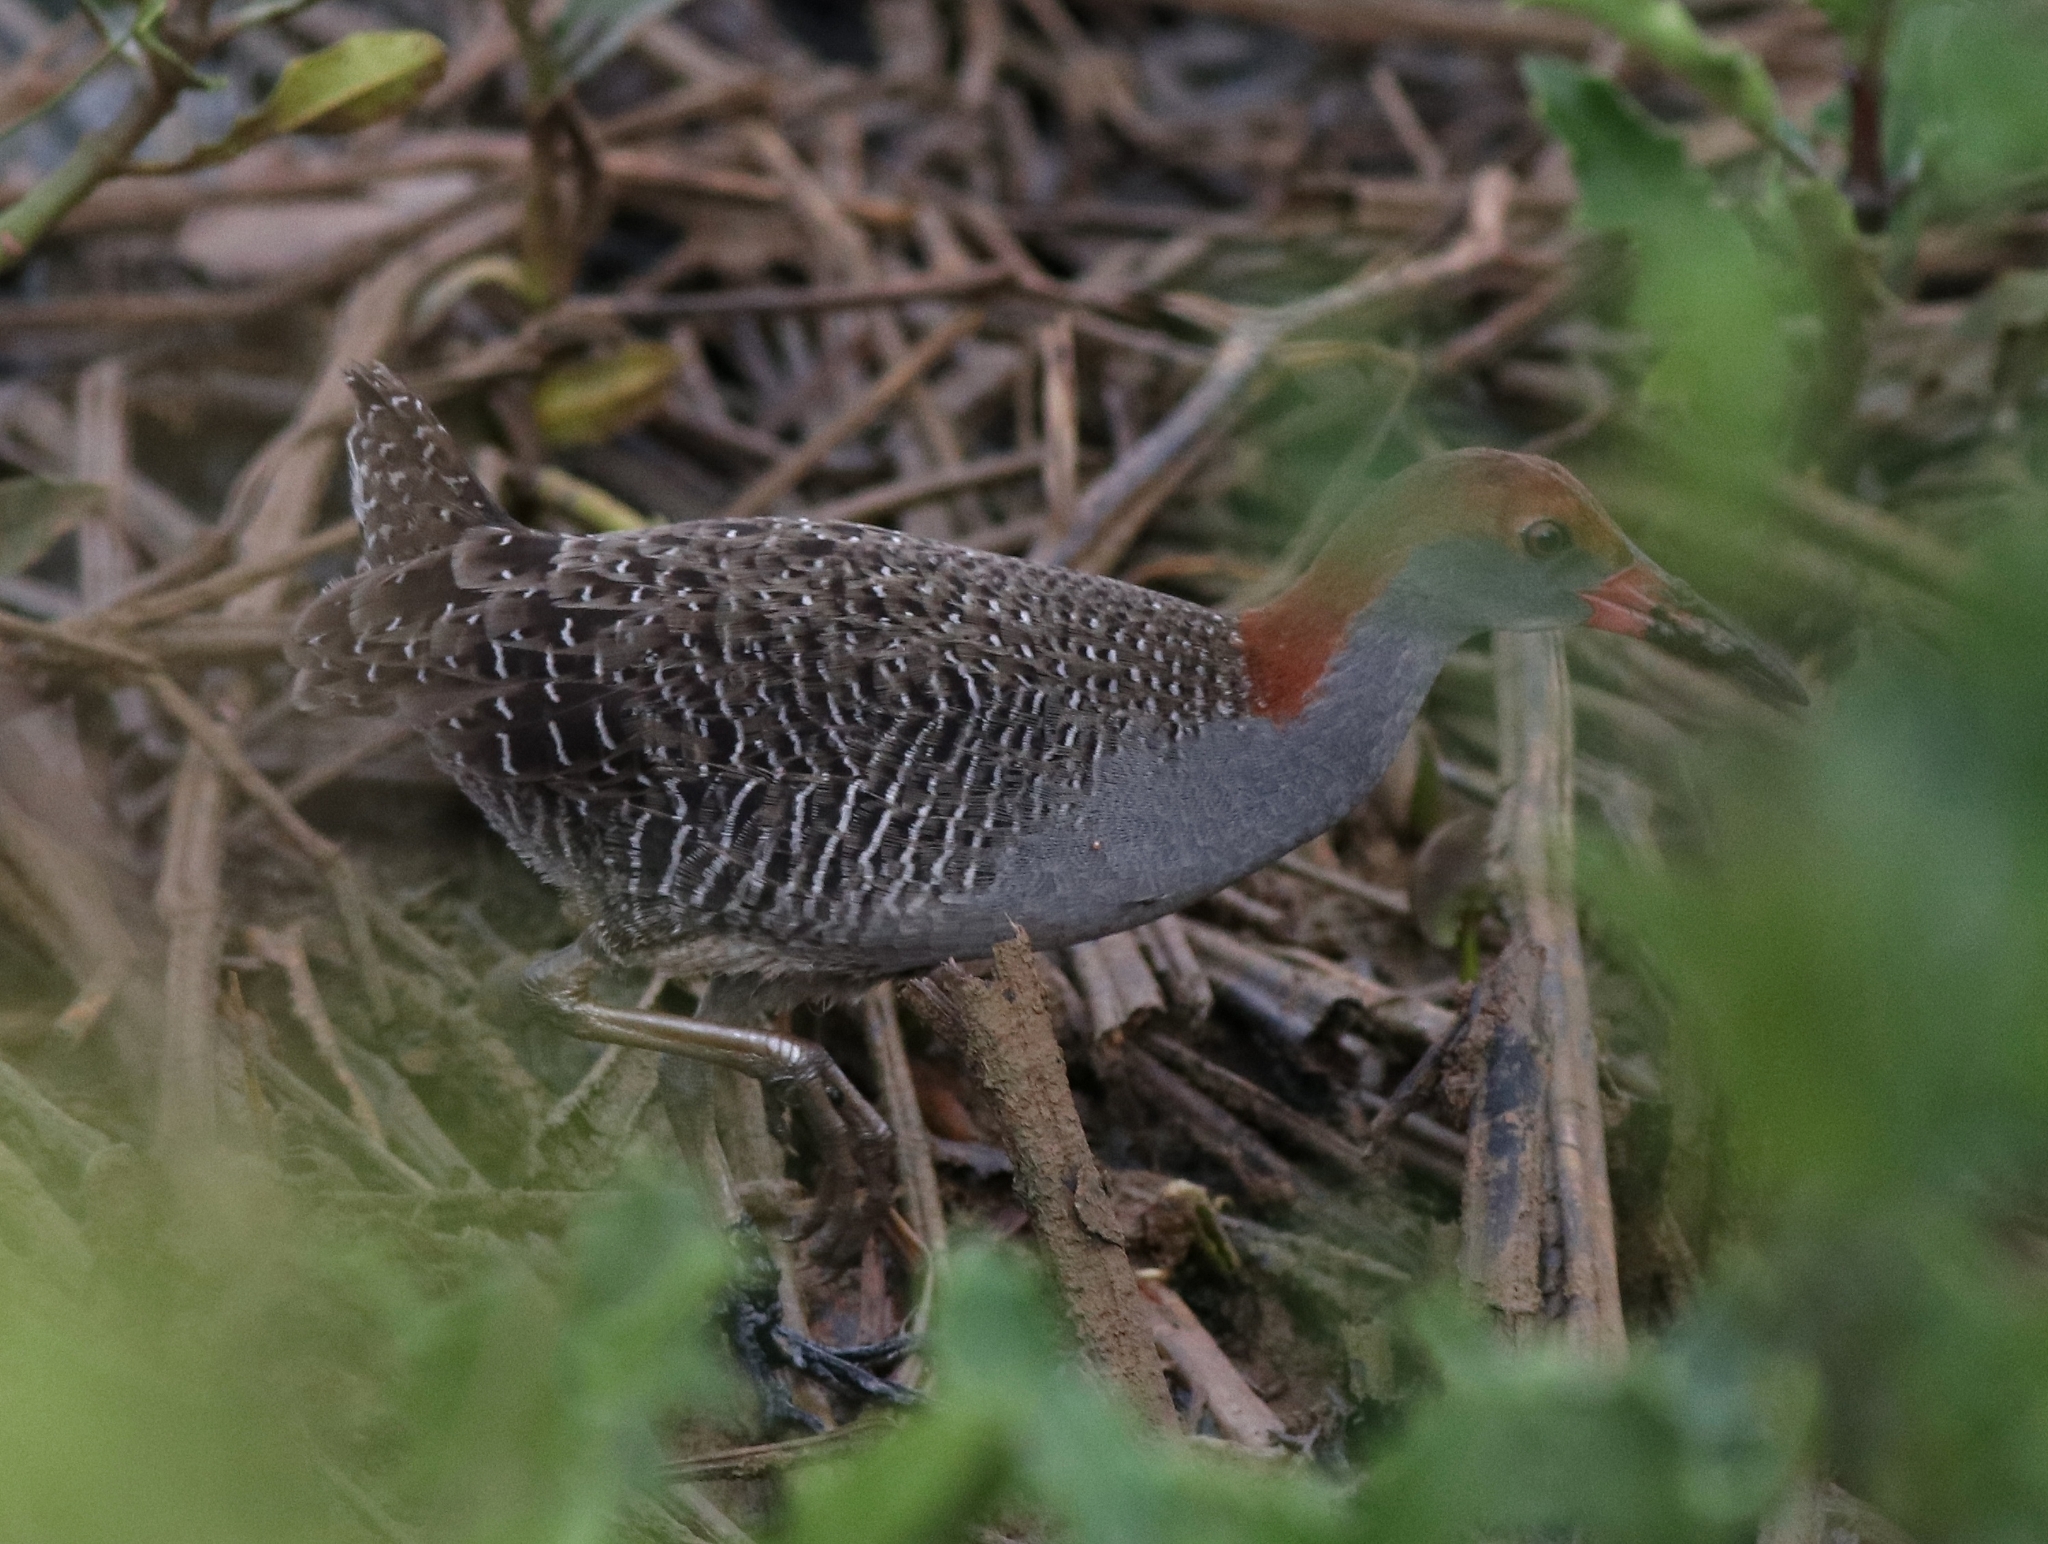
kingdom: Animalia
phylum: Chordata
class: Aves
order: Gruiformes
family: Rallidae
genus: Gallirallus
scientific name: Gallirallus striatus
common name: Slaty-breasted rail
